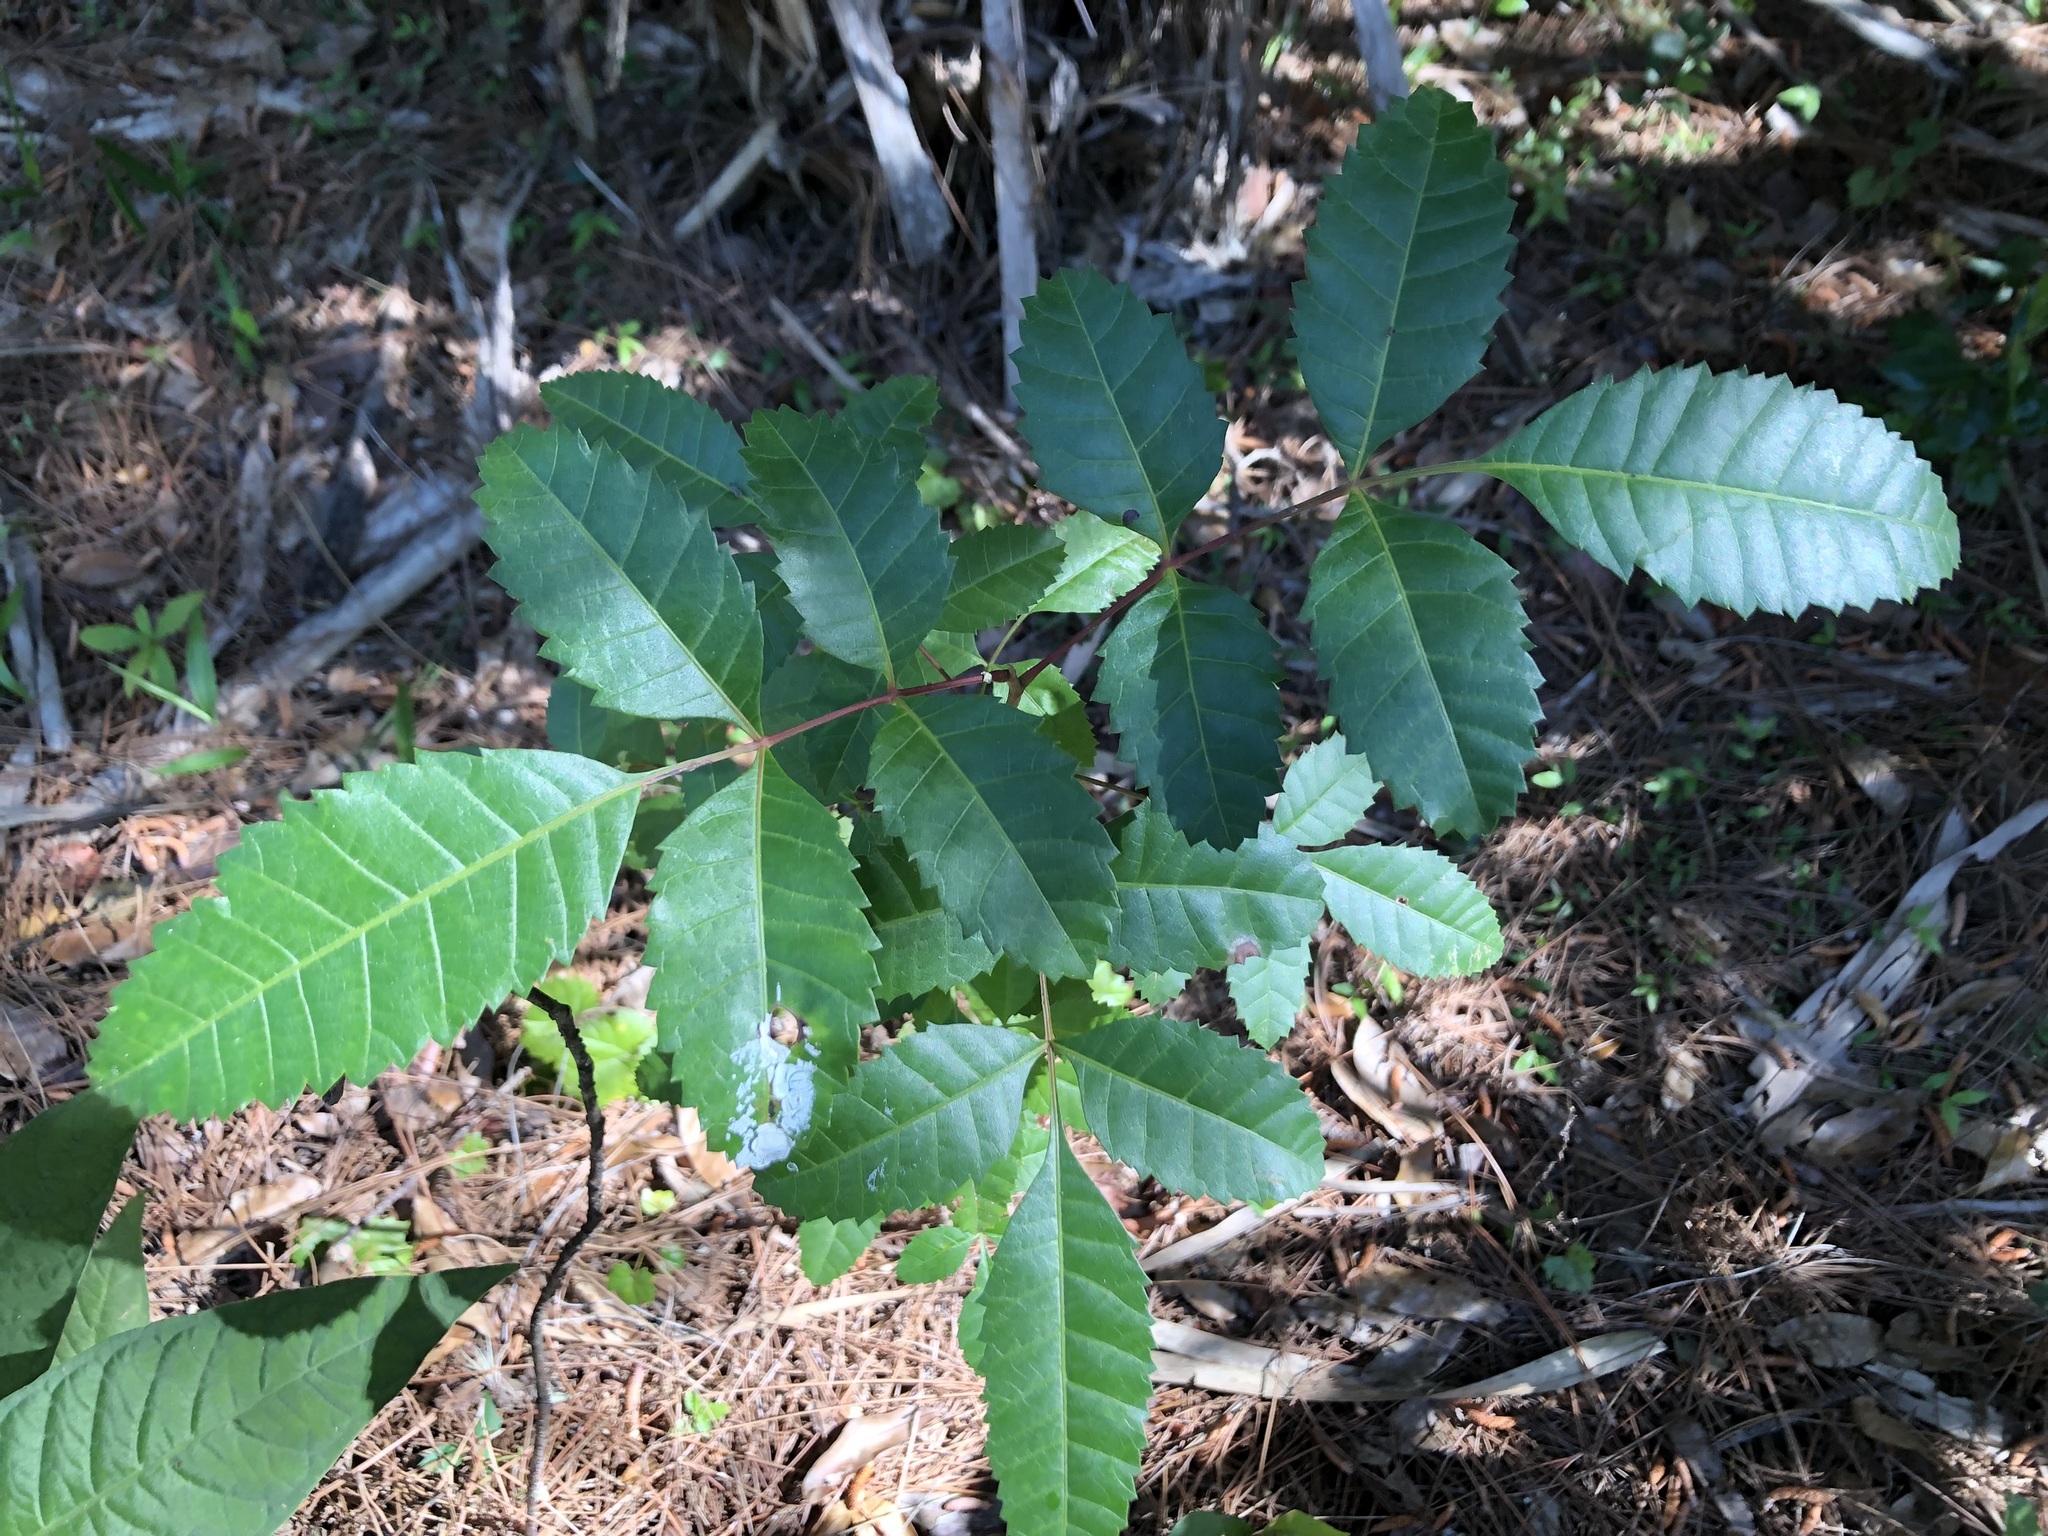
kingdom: Plantae
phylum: Tracheophyta
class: Magnoliopsida
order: Sapindales
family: Anacardiaceae
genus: Schinus
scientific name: Schinus terebinthifolia
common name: Brazilian peppertree
